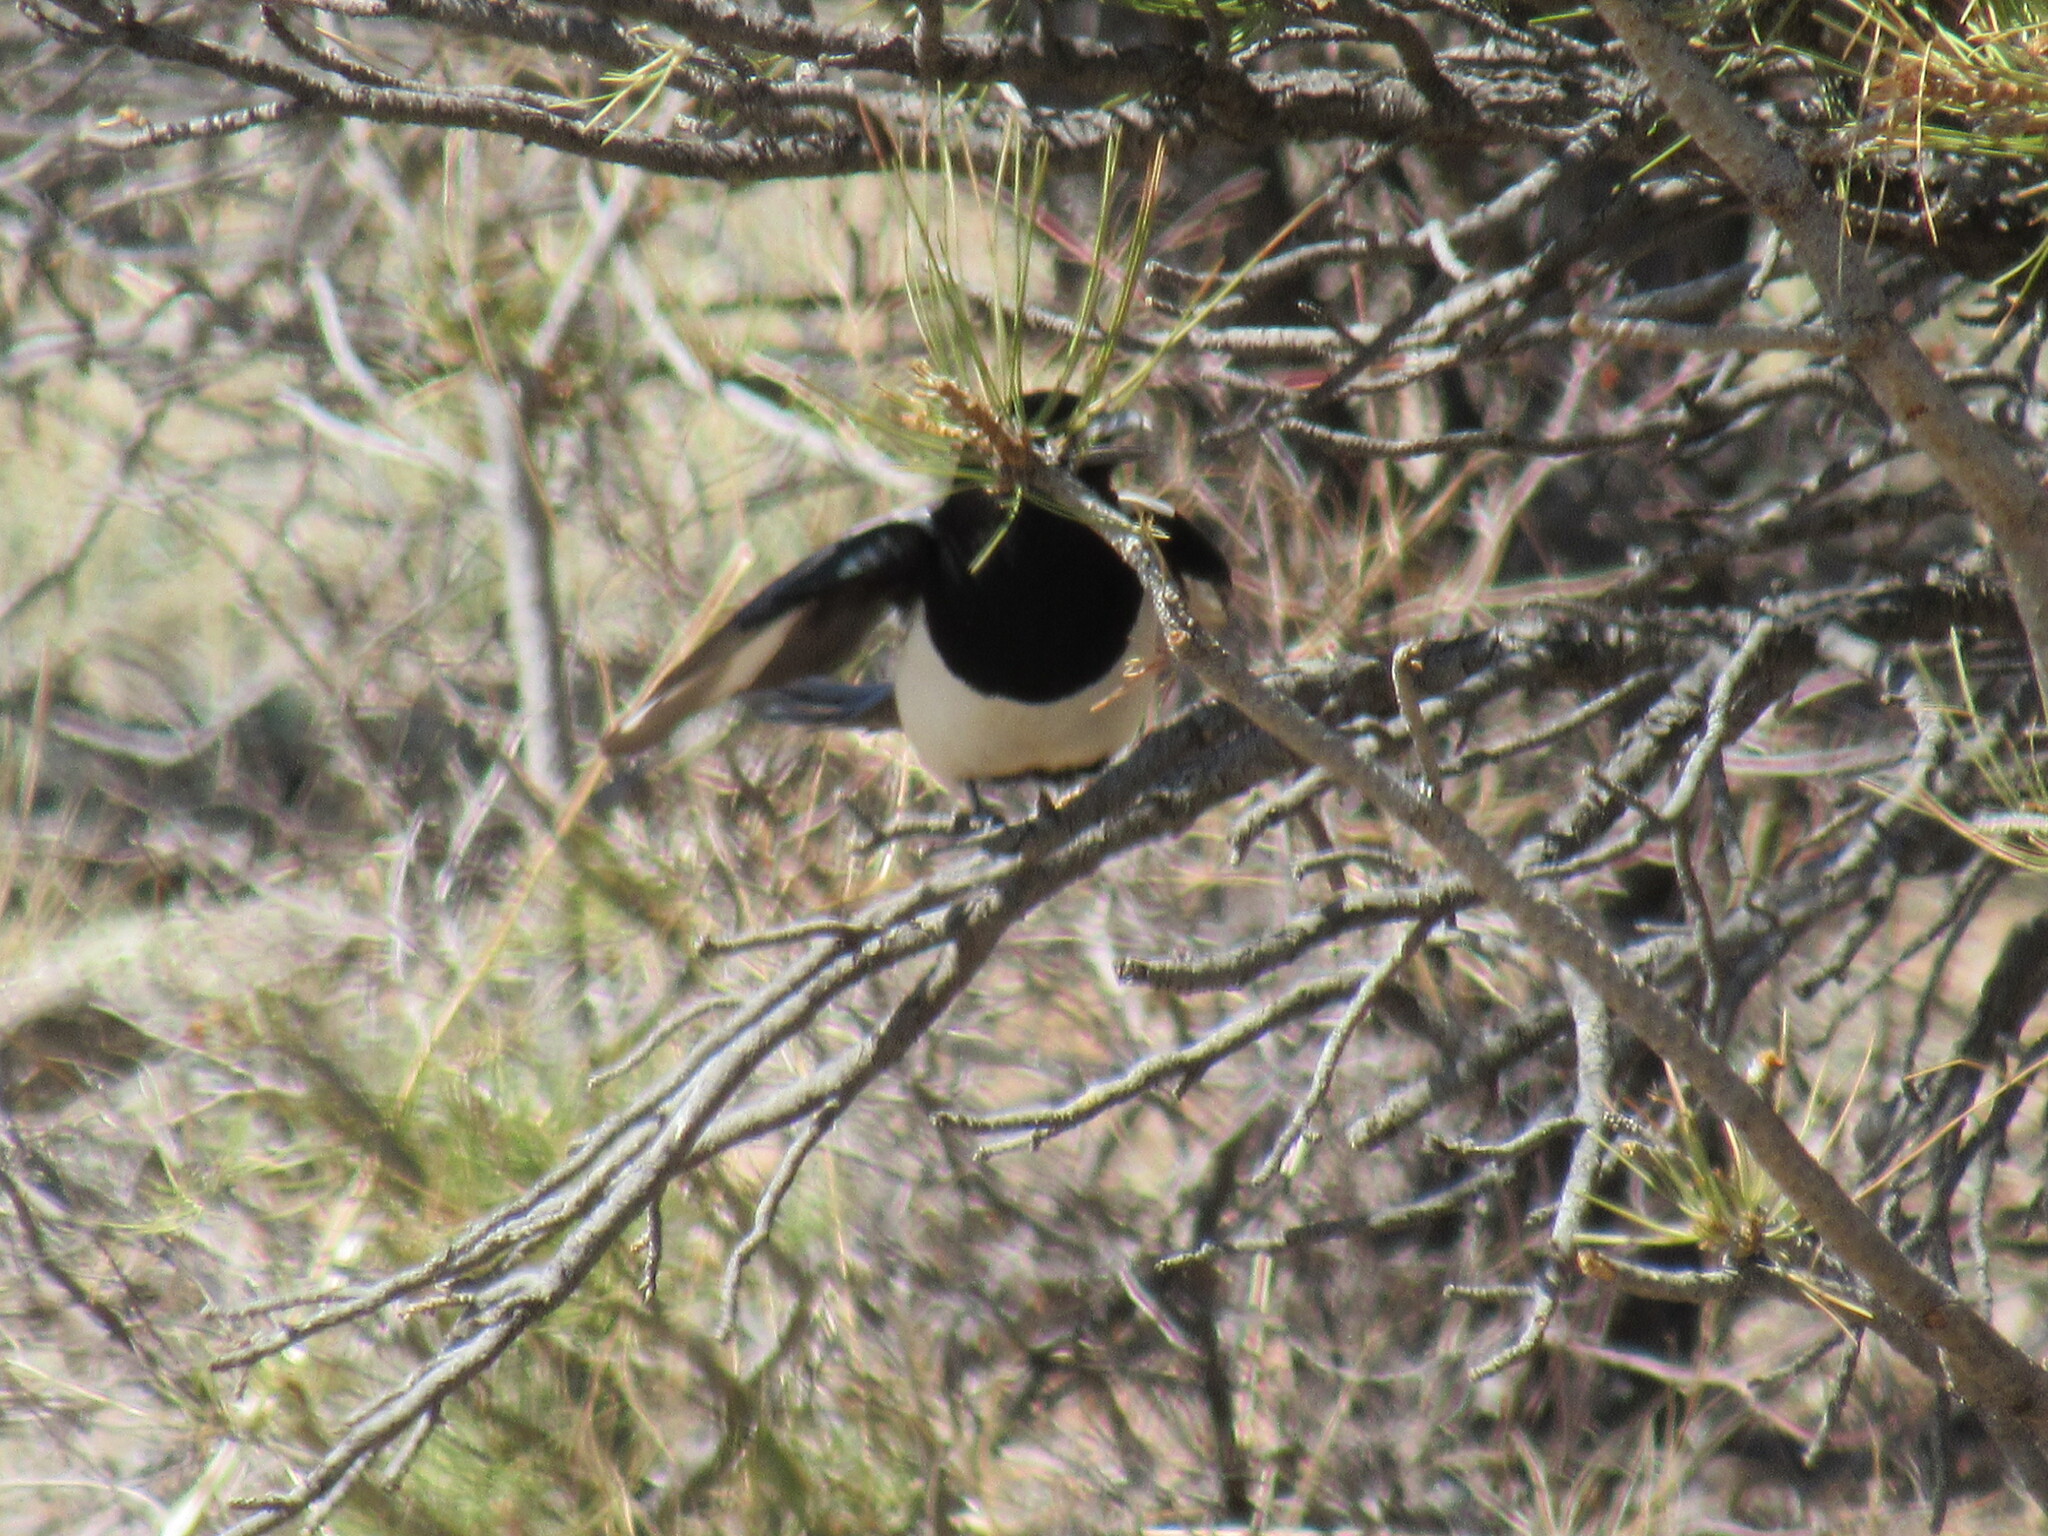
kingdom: Animalia
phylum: Chordata
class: Aves
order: Passeriformes
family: Corvidae
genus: Pica
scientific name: Pica hudsonia
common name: Black-billed magpie
